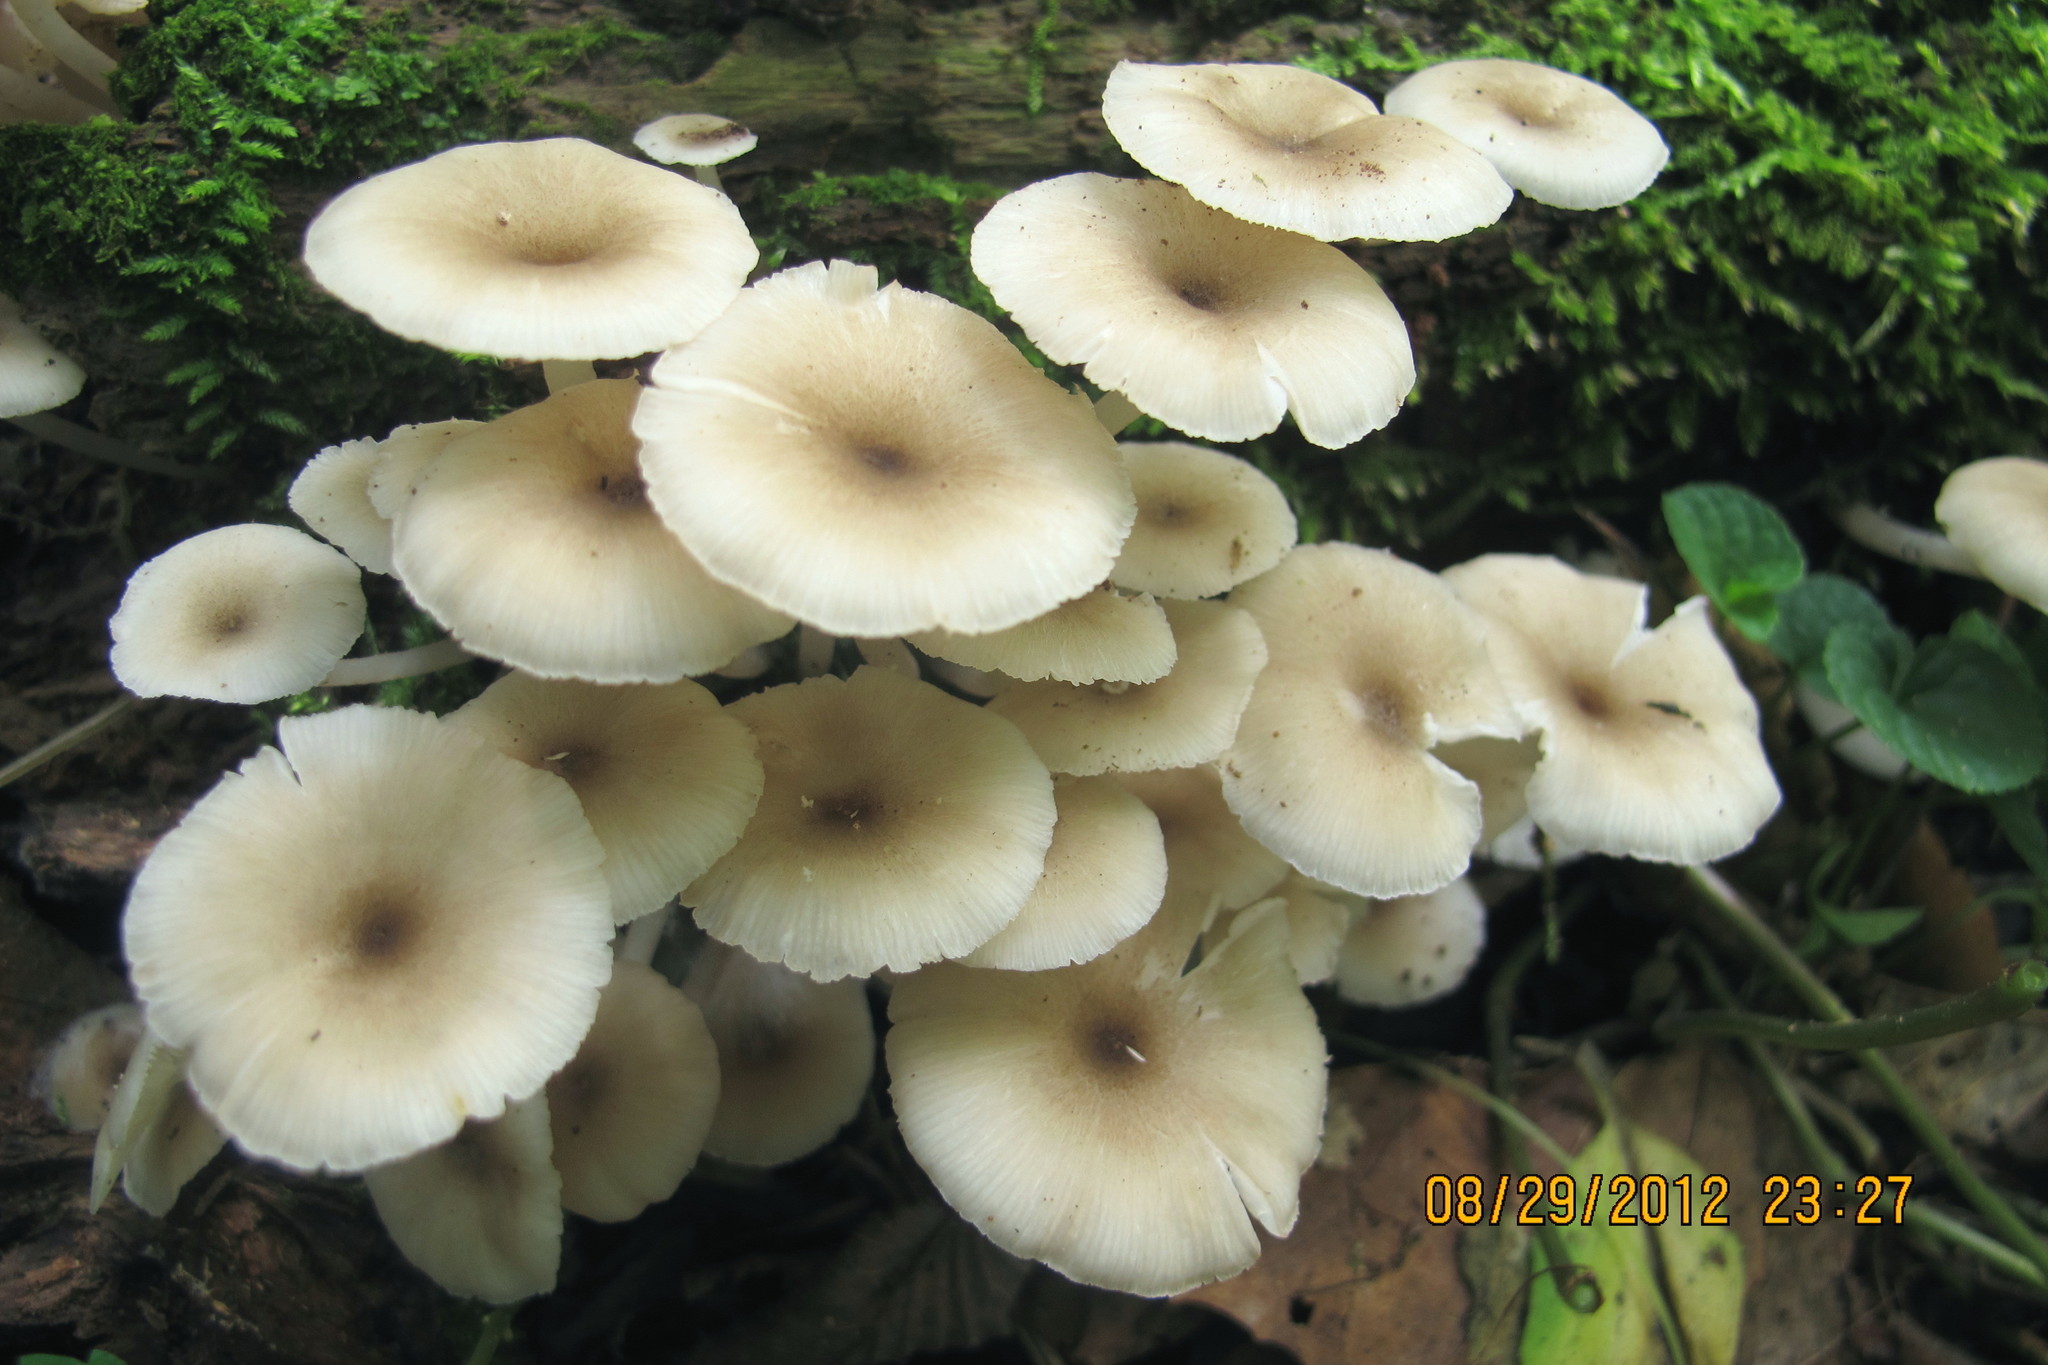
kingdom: Fungi
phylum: Basidiomycota
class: Agaricomycetes
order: Agaricales
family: Marasmiaceae
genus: Clitocybula
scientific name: Clitocybula abundans
